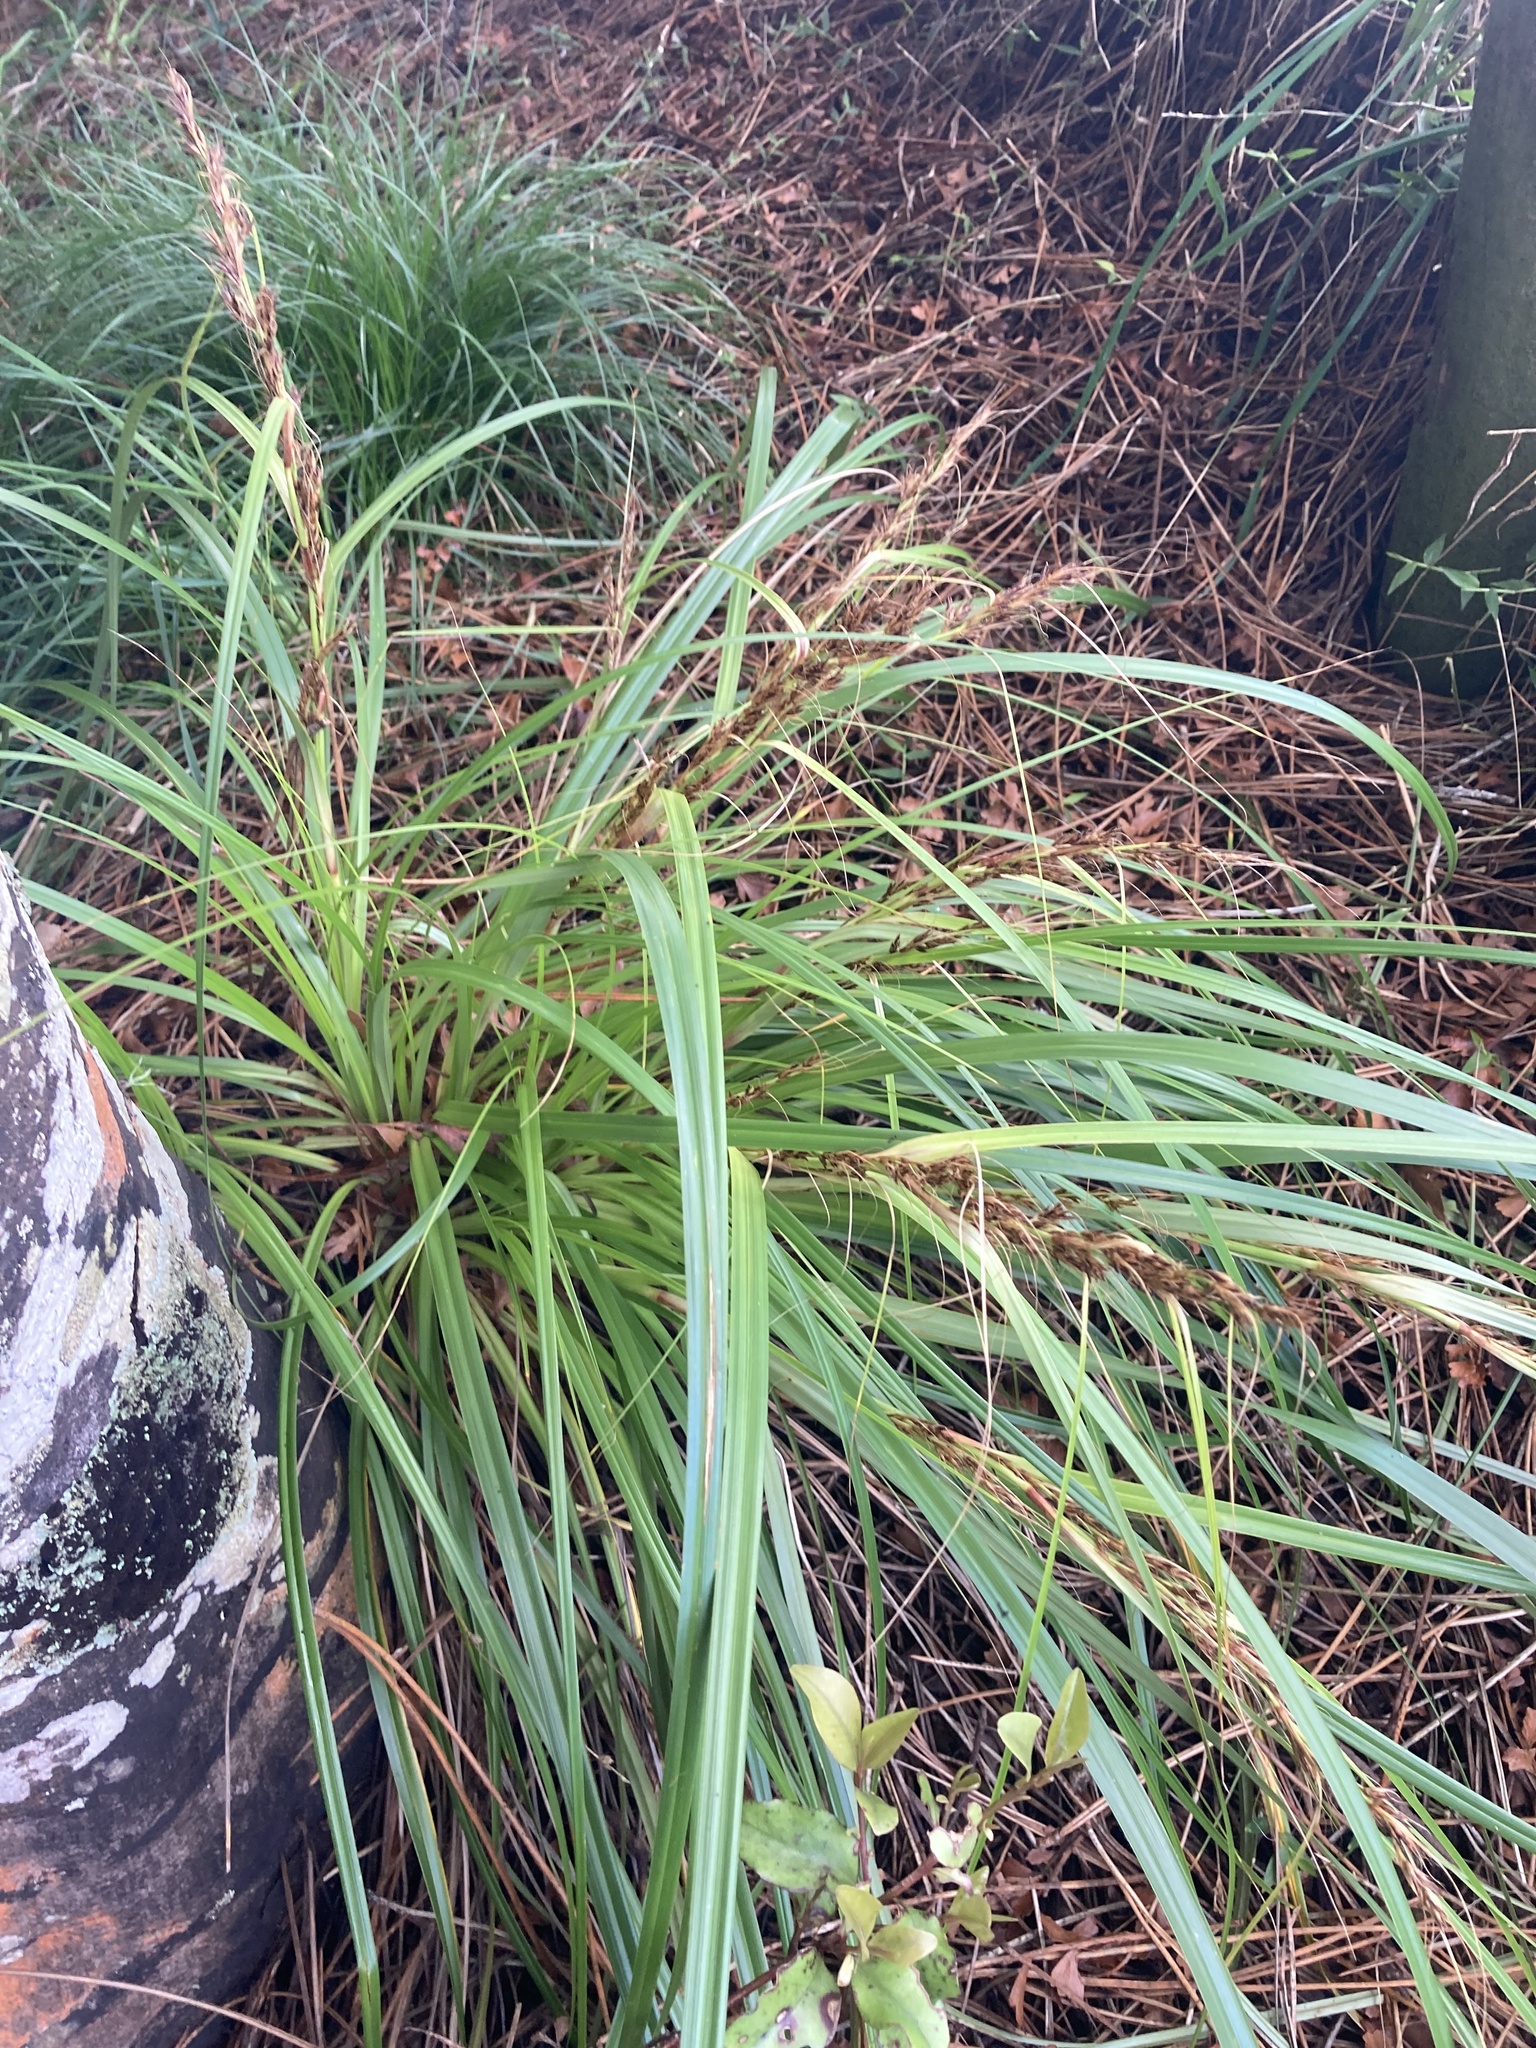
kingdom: Plantae
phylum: Tracheophyta
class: Liliopsida
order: Poales
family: Cyperaceae
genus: Morelotia
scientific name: Morelotia affinis
